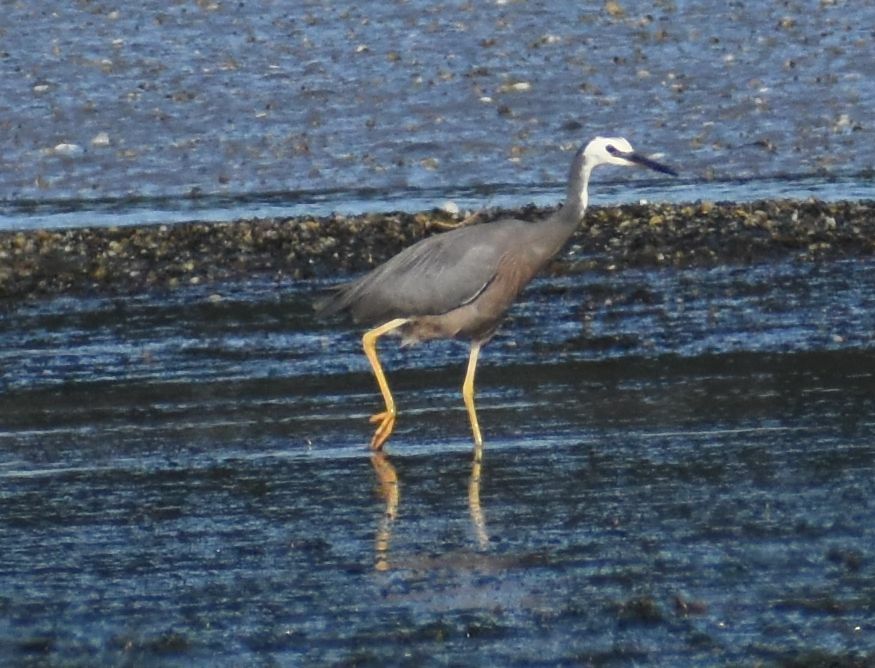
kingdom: Animalia
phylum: Chordata
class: Aves
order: Pelecaniformes
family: Ardeidae
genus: Egretta
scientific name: Egretta novaehollandiae
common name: White-faced heron
